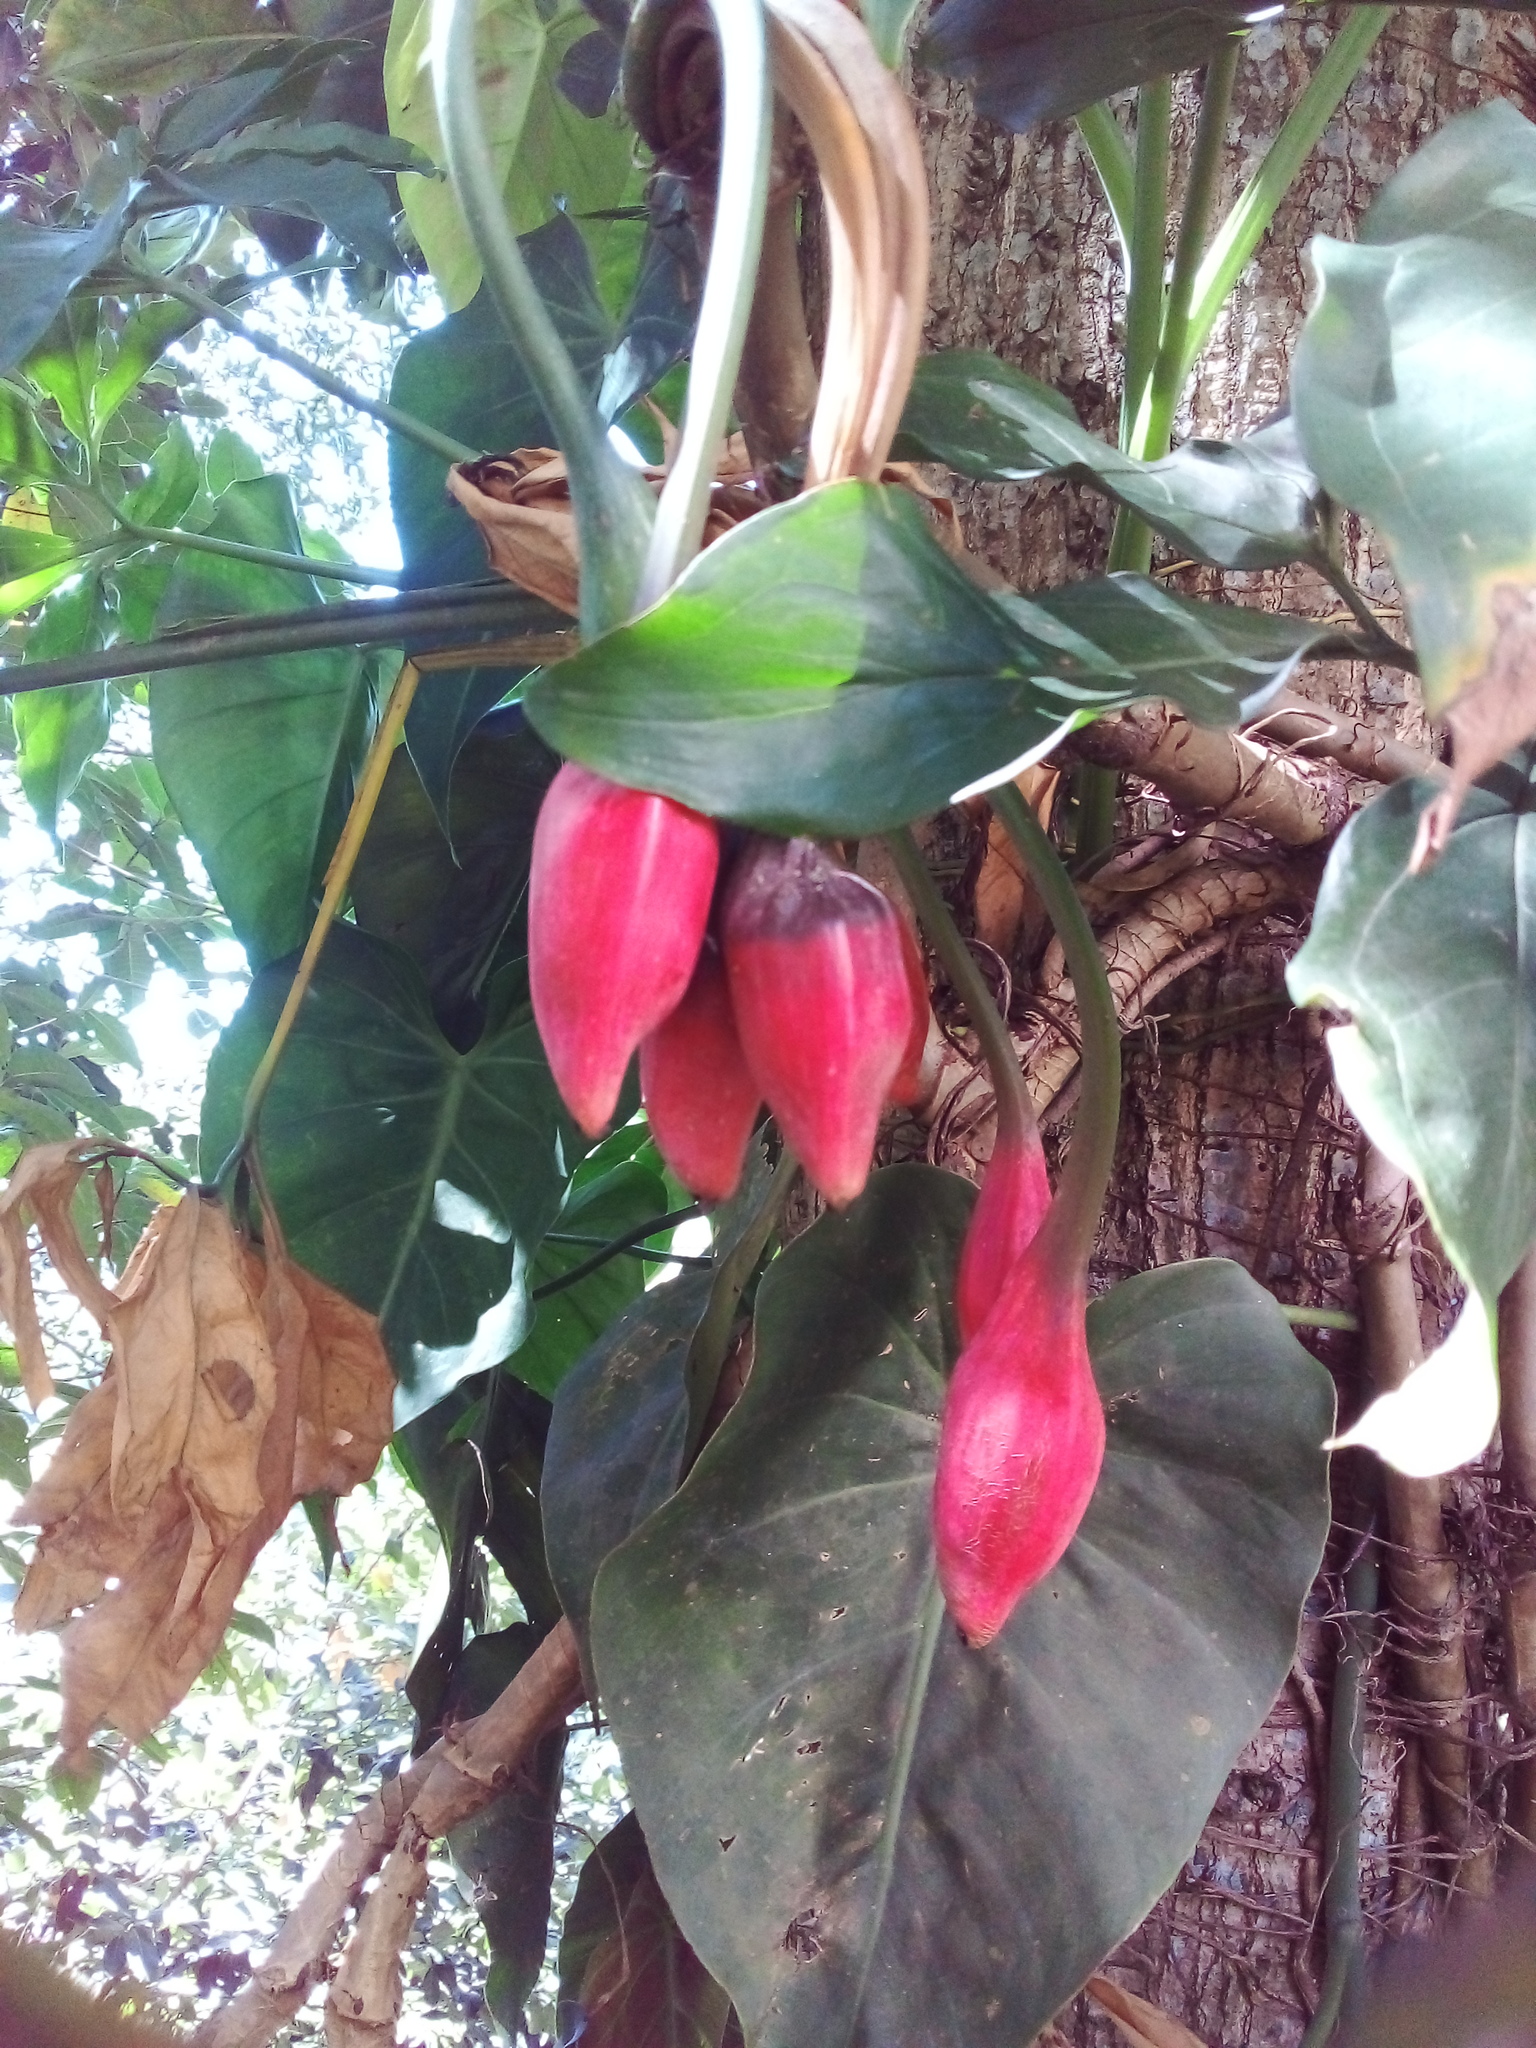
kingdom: Plantae
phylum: Tracheophyta
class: Liliopsida
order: Alismatales
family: Araceae
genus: Syngonium
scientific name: Syngonium podophyllum
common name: American evergreen
